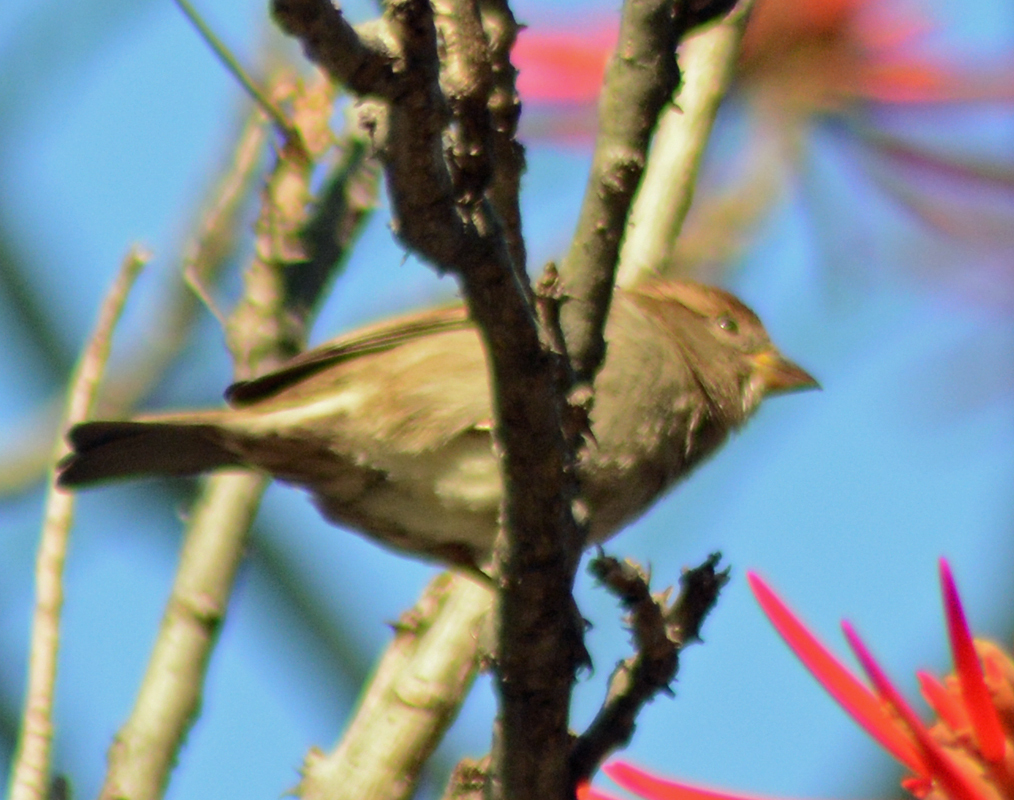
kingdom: Animalia
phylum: Chordata
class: Aves
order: Passeriformes
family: Passeridae
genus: Passer
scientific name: Passer domesticus
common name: House sparrow
